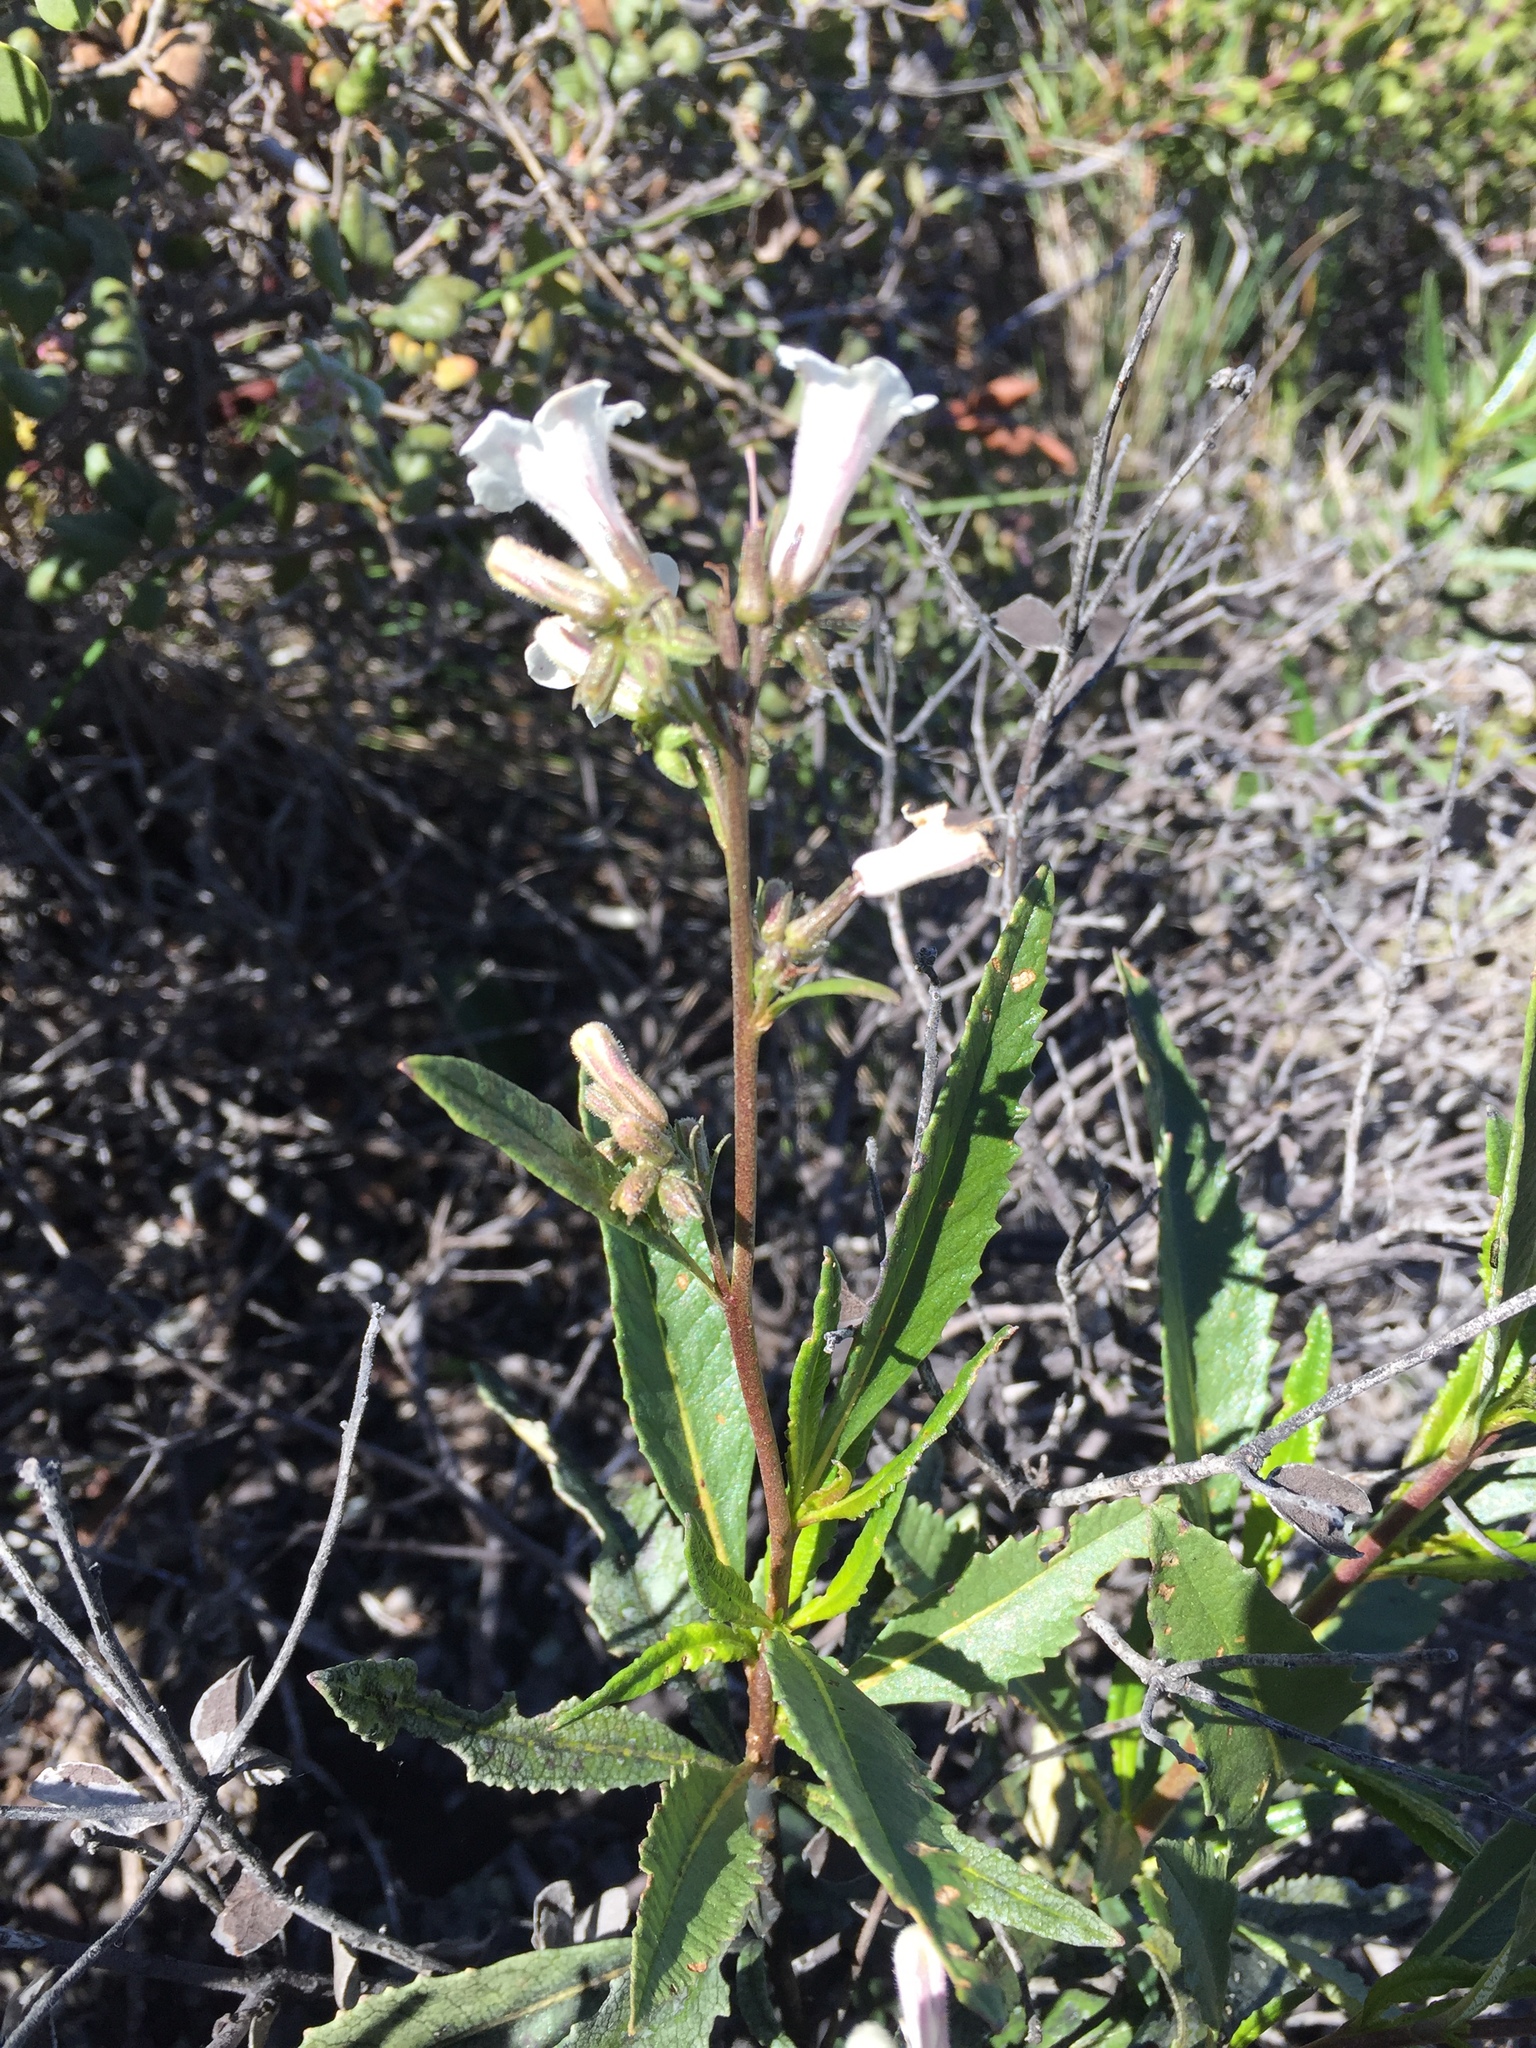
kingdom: Plantae
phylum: Tracheophyta
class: Magnoliopsida
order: Boraginales
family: Namaceae
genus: Eriodictyon
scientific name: Eriodictyon californicum
